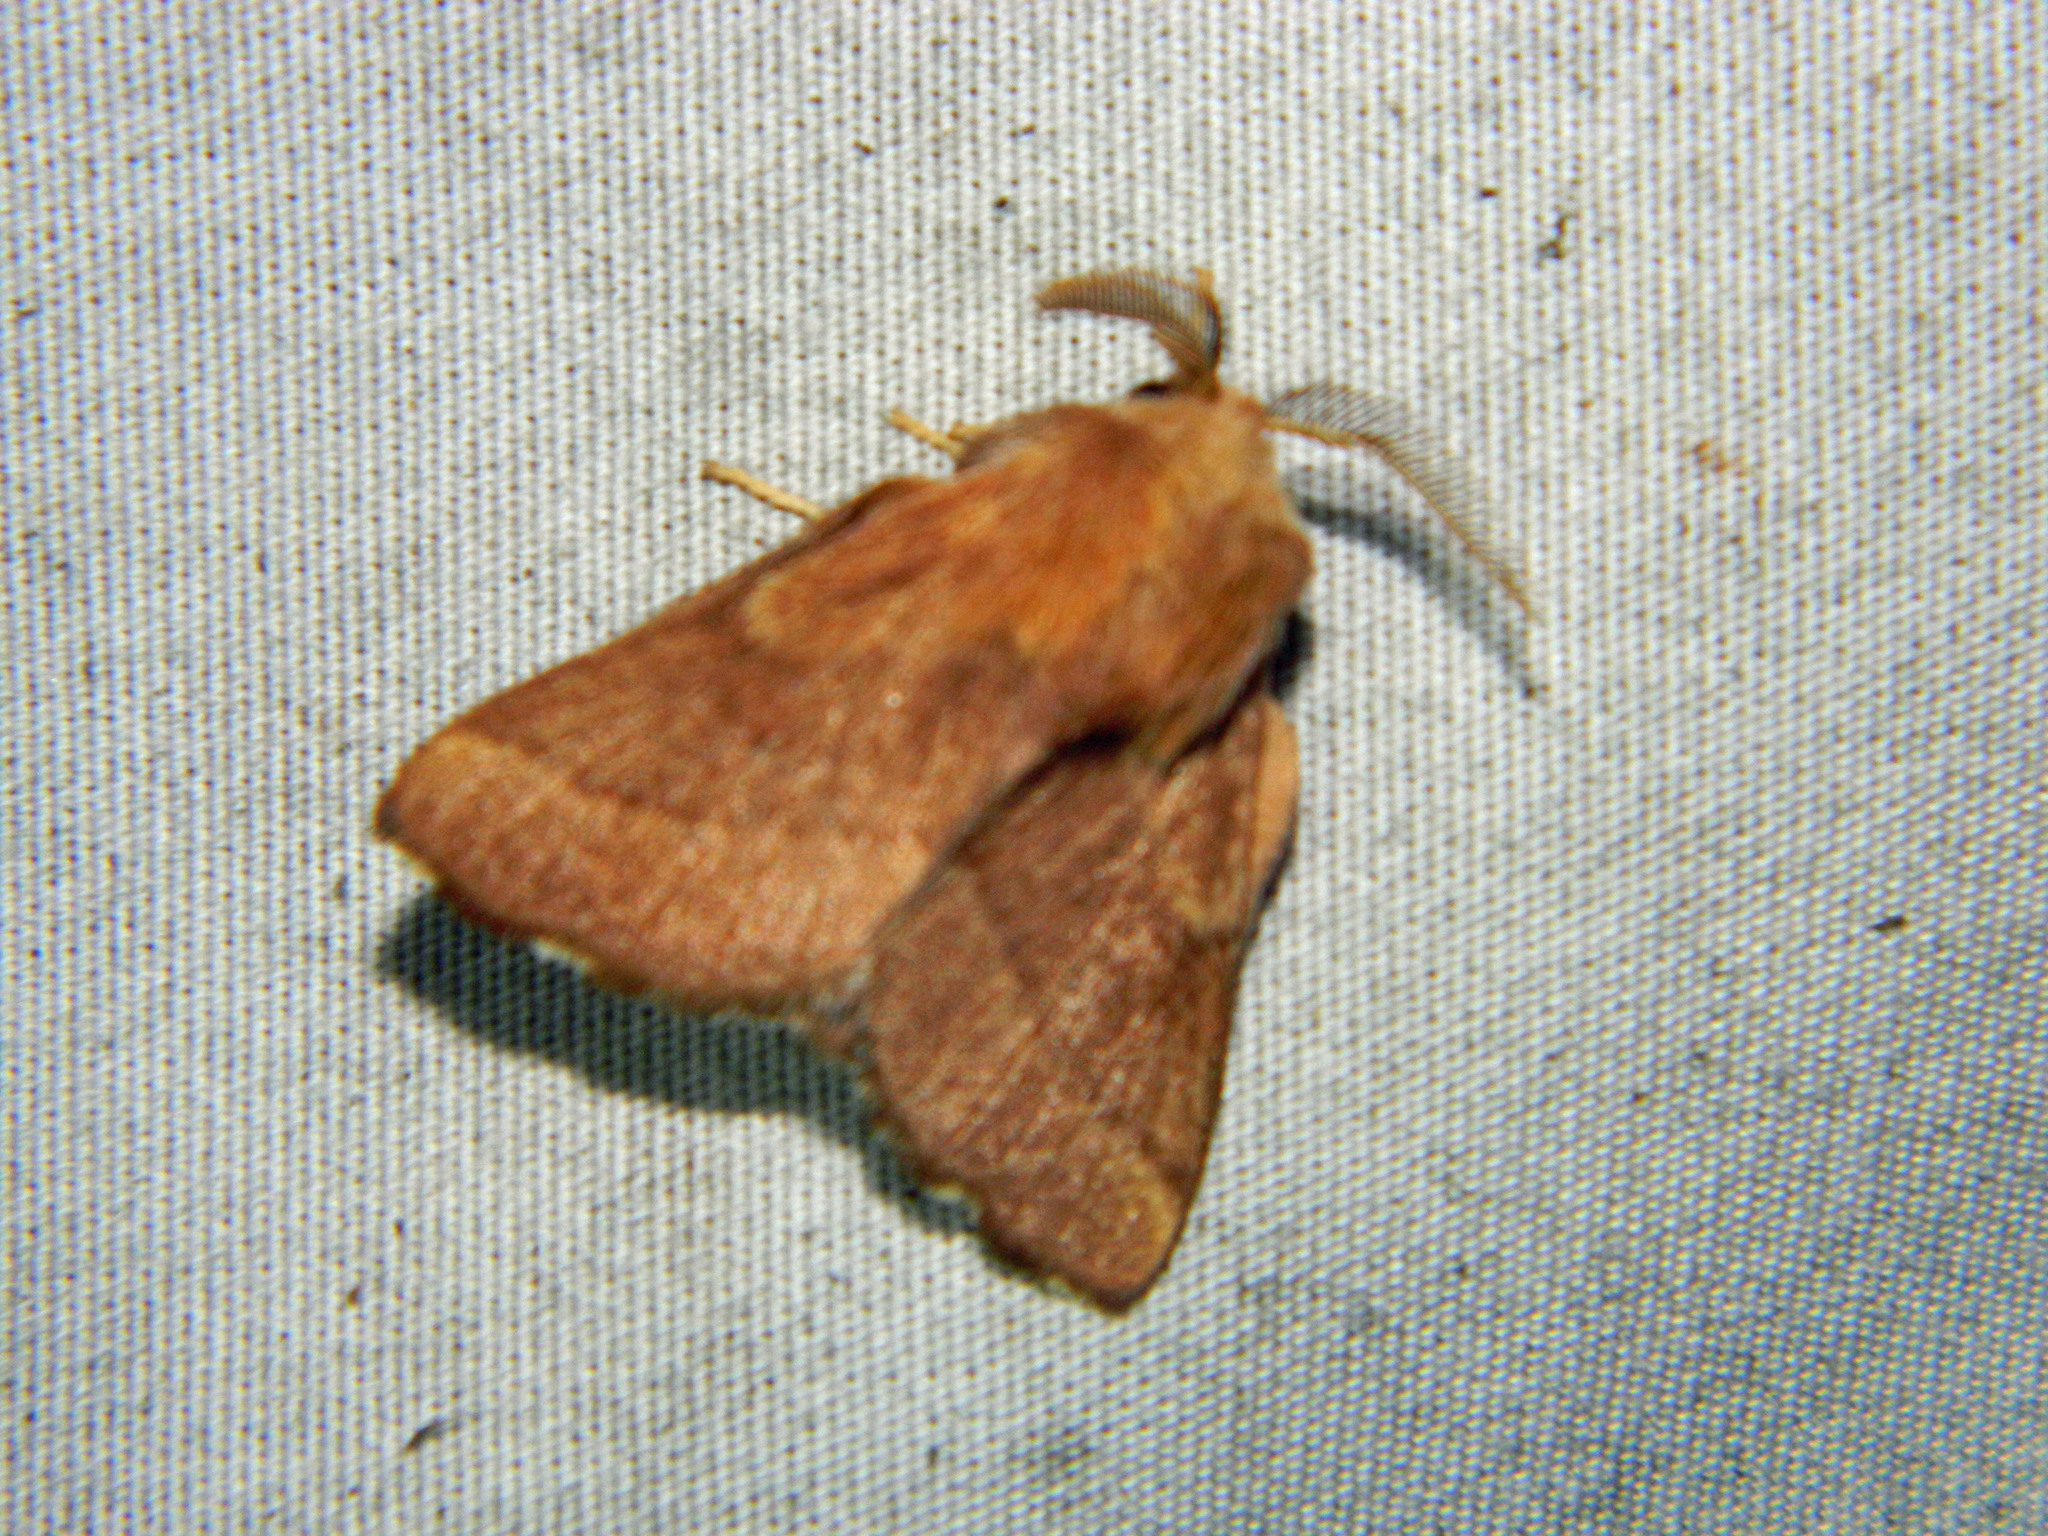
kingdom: Animalia
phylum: Arthropoda
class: Insecta
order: Lepidoptera
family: Lasiocampidae
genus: Malacosoma
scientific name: Malacosoma disstria
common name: Forest tent caterpillar
